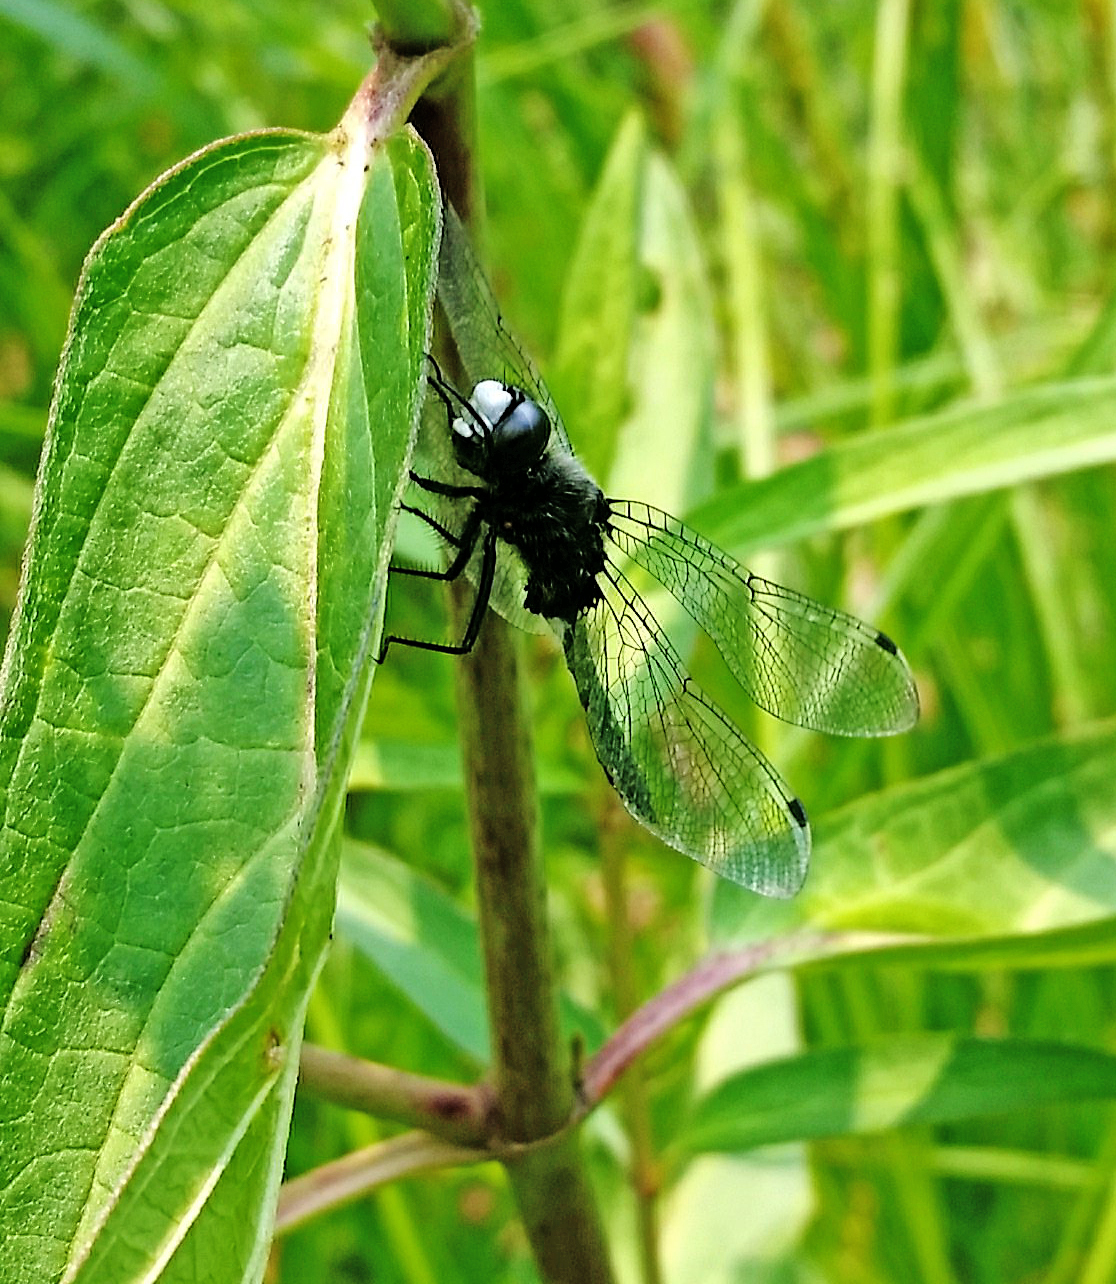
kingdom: Animalia
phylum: Arthropoda
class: Insecta
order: Odonata
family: Libellulidae
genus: Leucorrhinia
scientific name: Leucorrhinia intacta
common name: Dot-tailed whiteface
